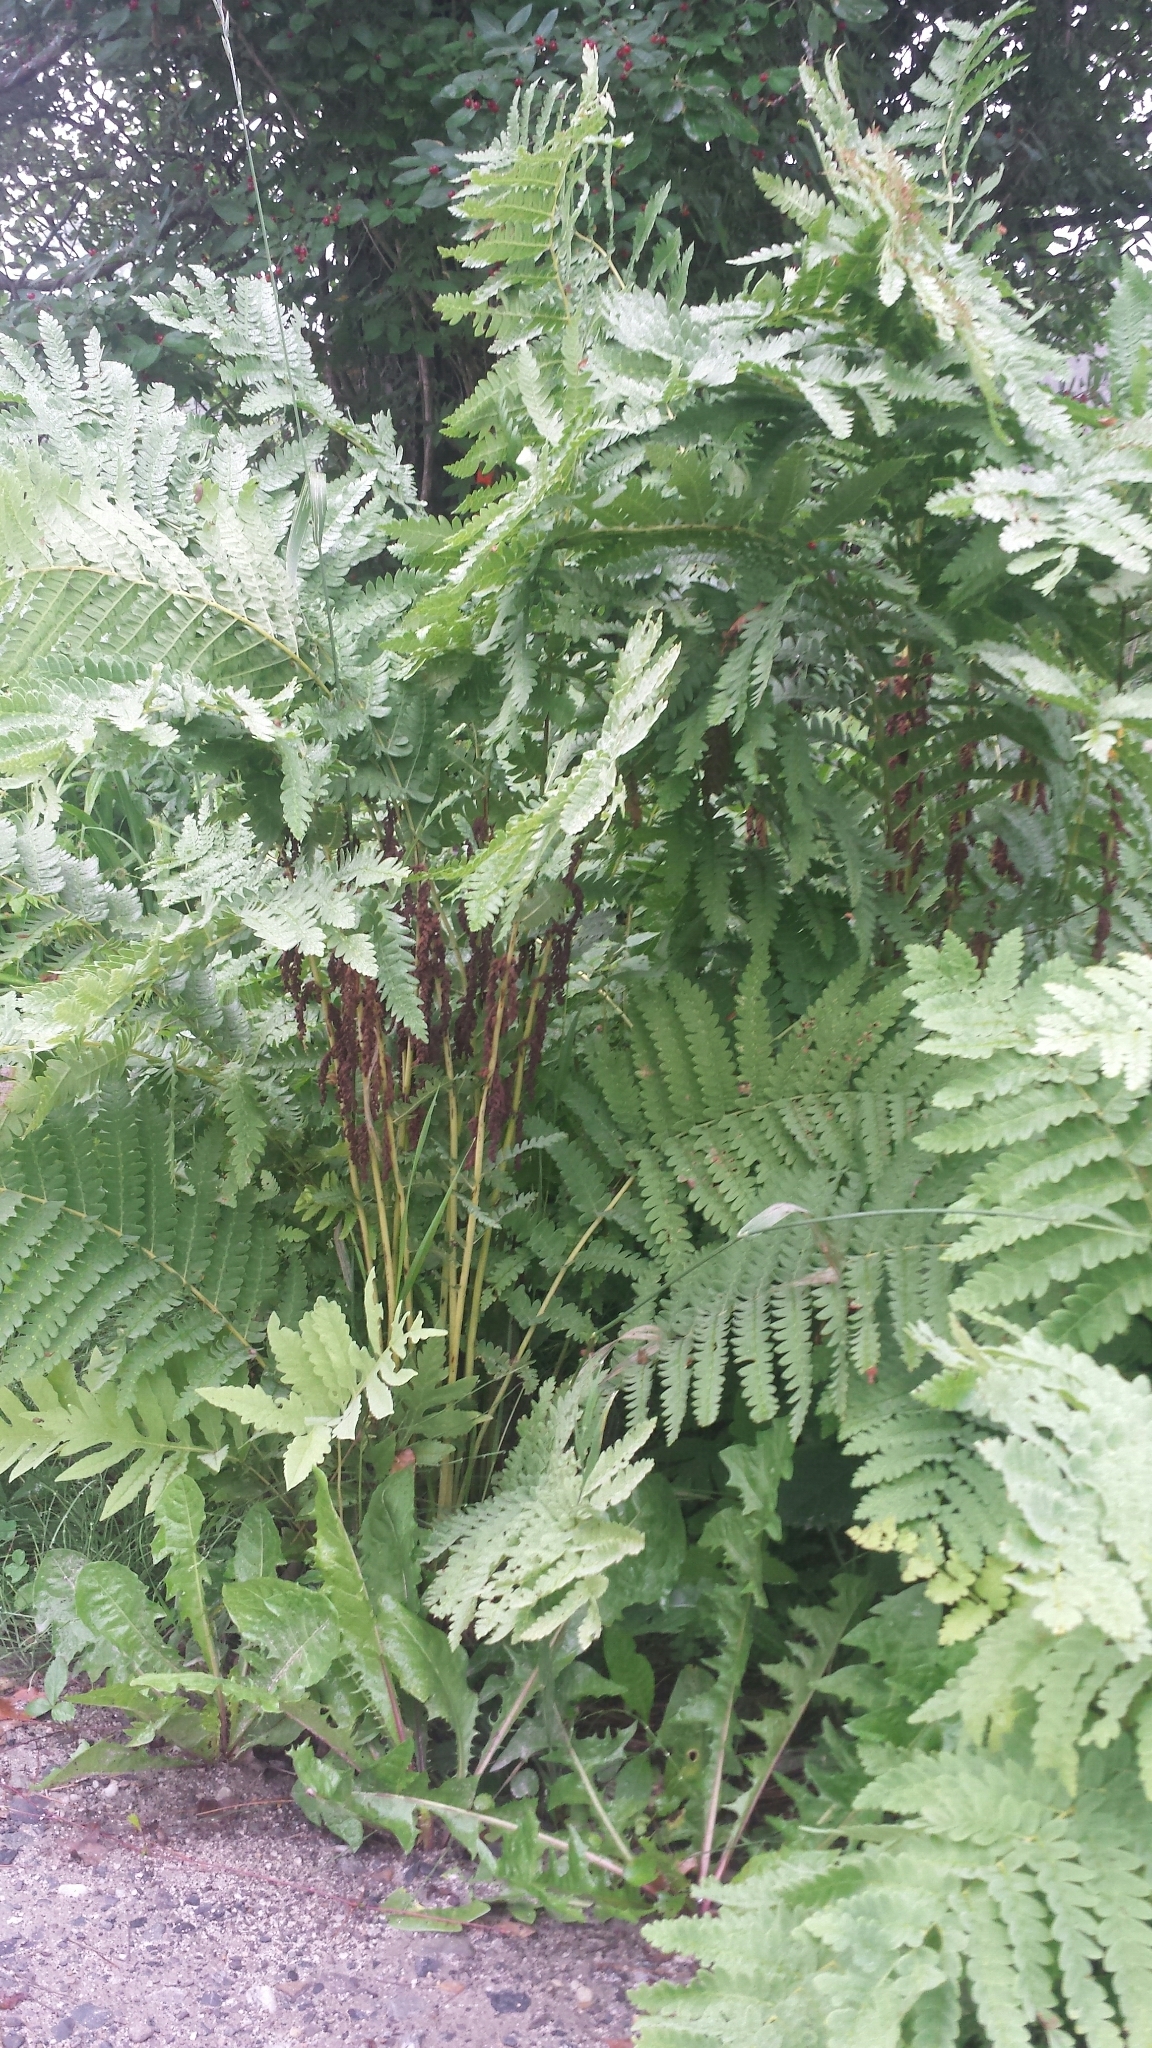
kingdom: Plantae
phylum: Tracheophyta
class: Polypodiopsida
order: Osmundales
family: Osmundaceae
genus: Claytosmunda
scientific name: Claytosmunda claytoniana
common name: Clayton's fern
